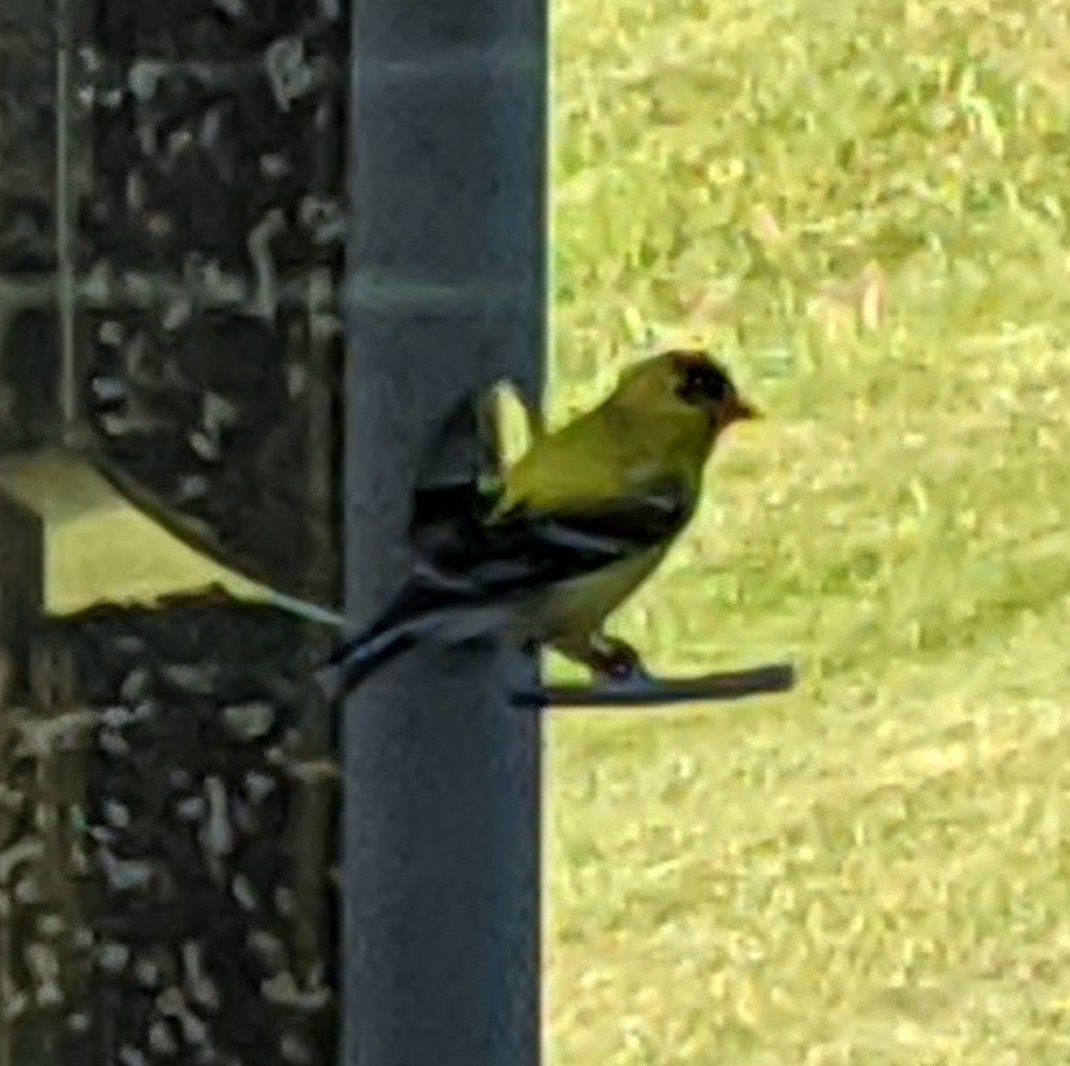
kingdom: Animalia
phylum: Chordata
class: Aves
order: Passeriformes
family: Fringillidae
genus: Spinus
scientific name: Spinus tristis
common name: American goldfinch
